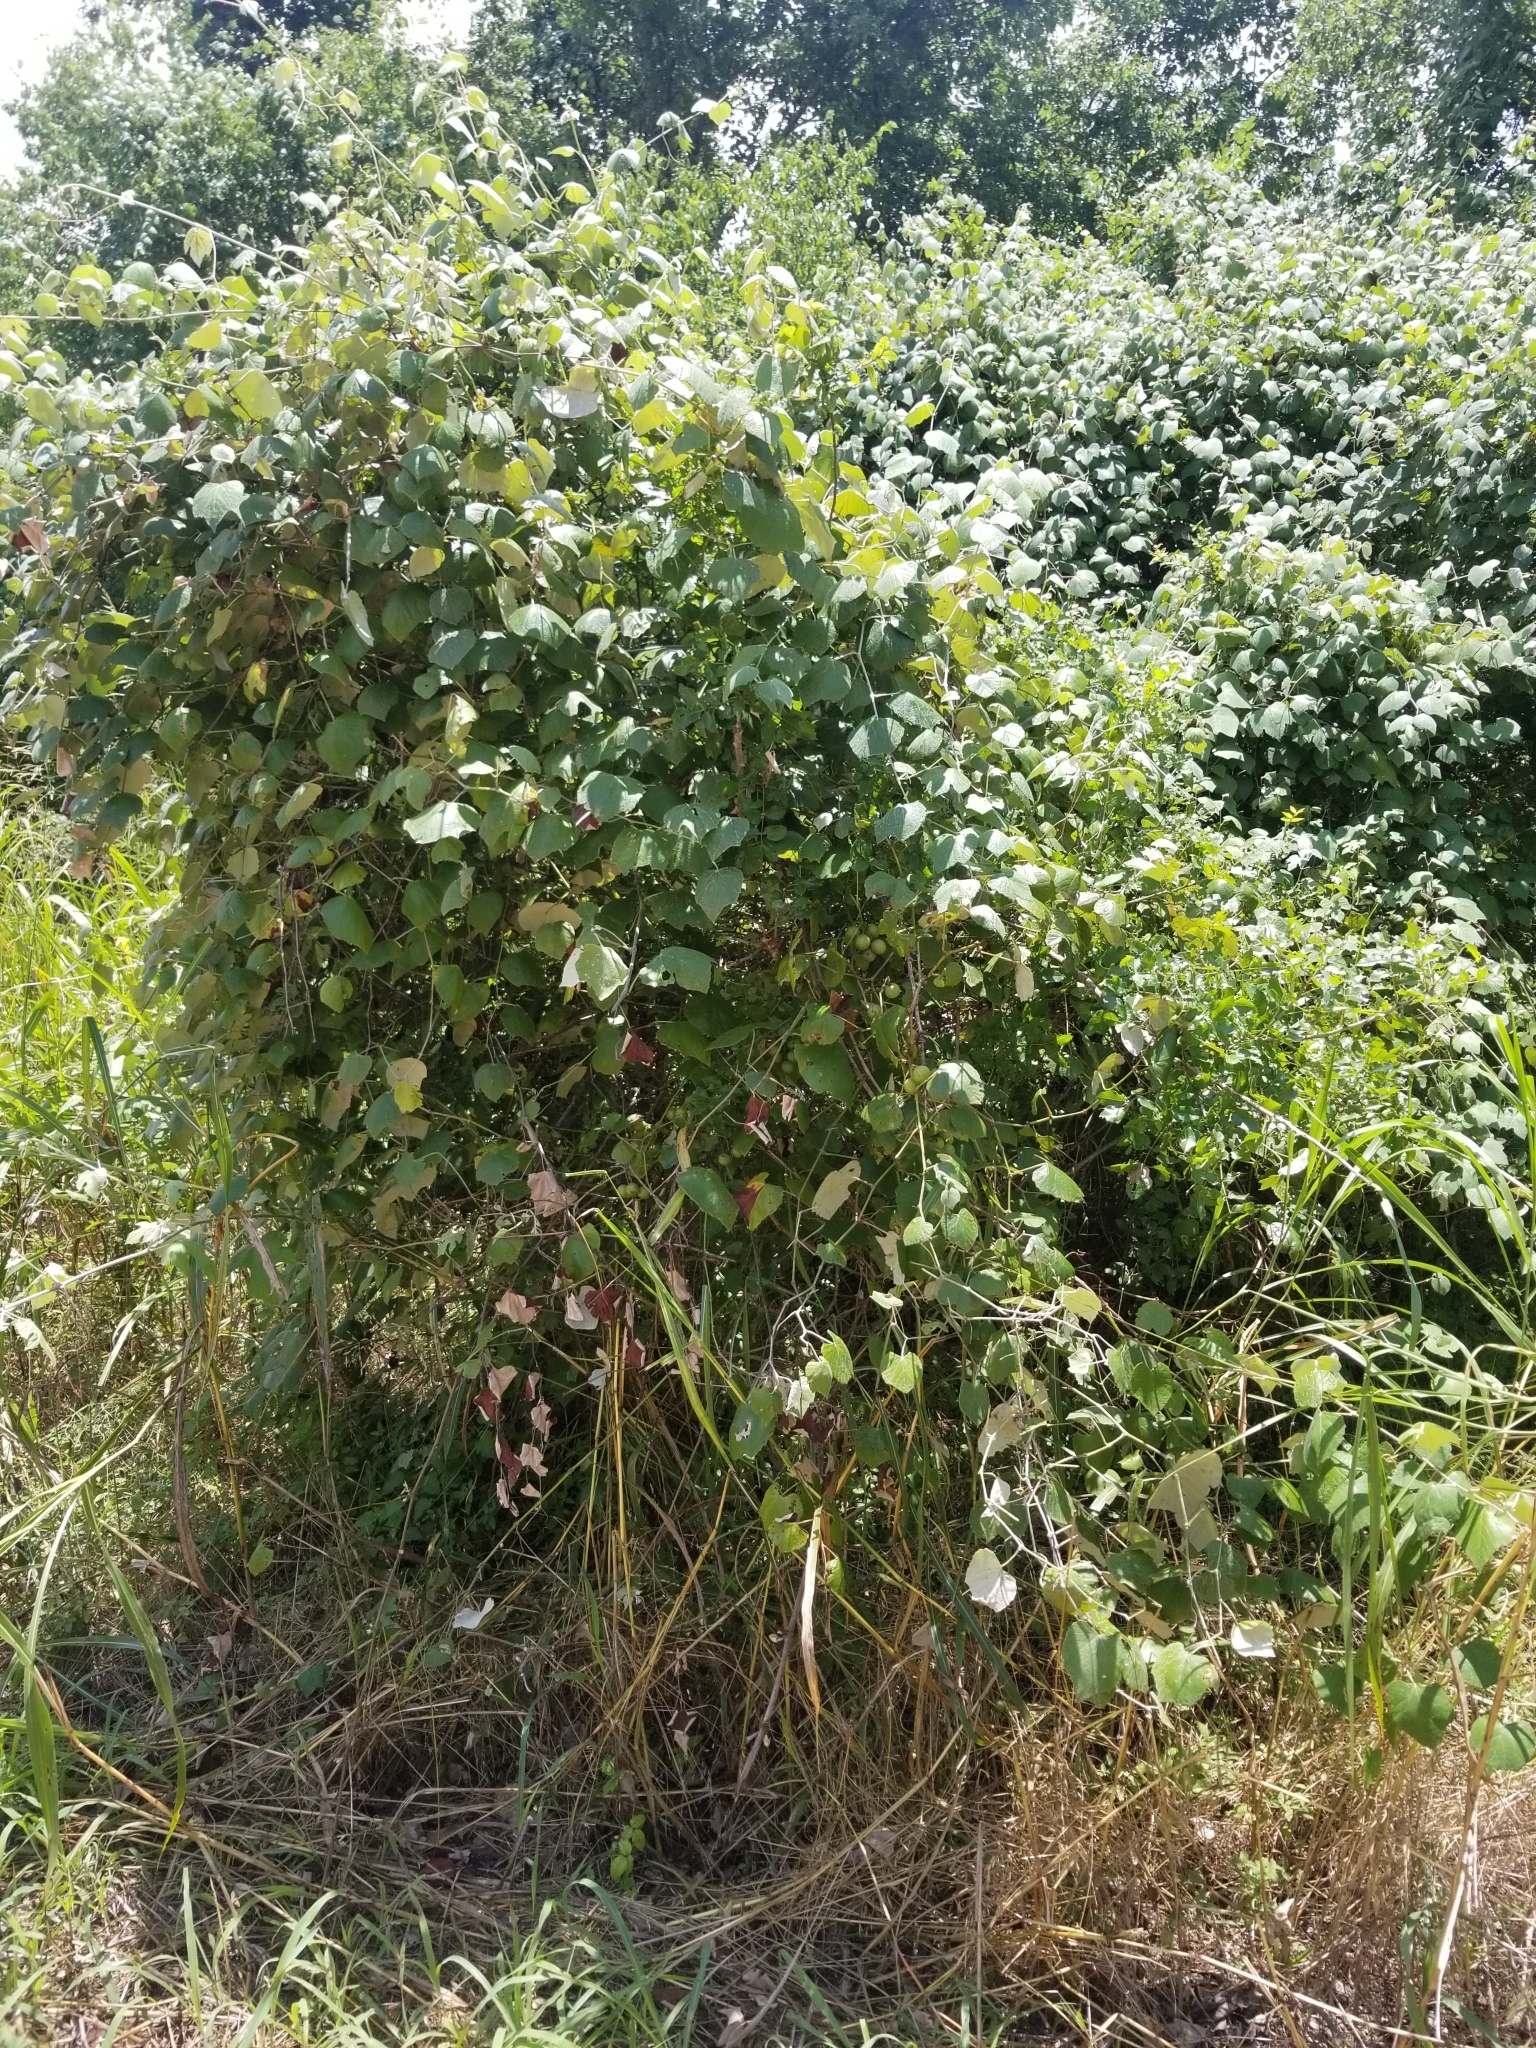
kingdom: Plantae
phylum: Tracheophyta
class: Magnoliopsida
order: Sapindales
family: Rutaceae
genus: Zanthoxylum
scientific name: Zanthoxylum clava-herculis
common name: Hercules'-club
